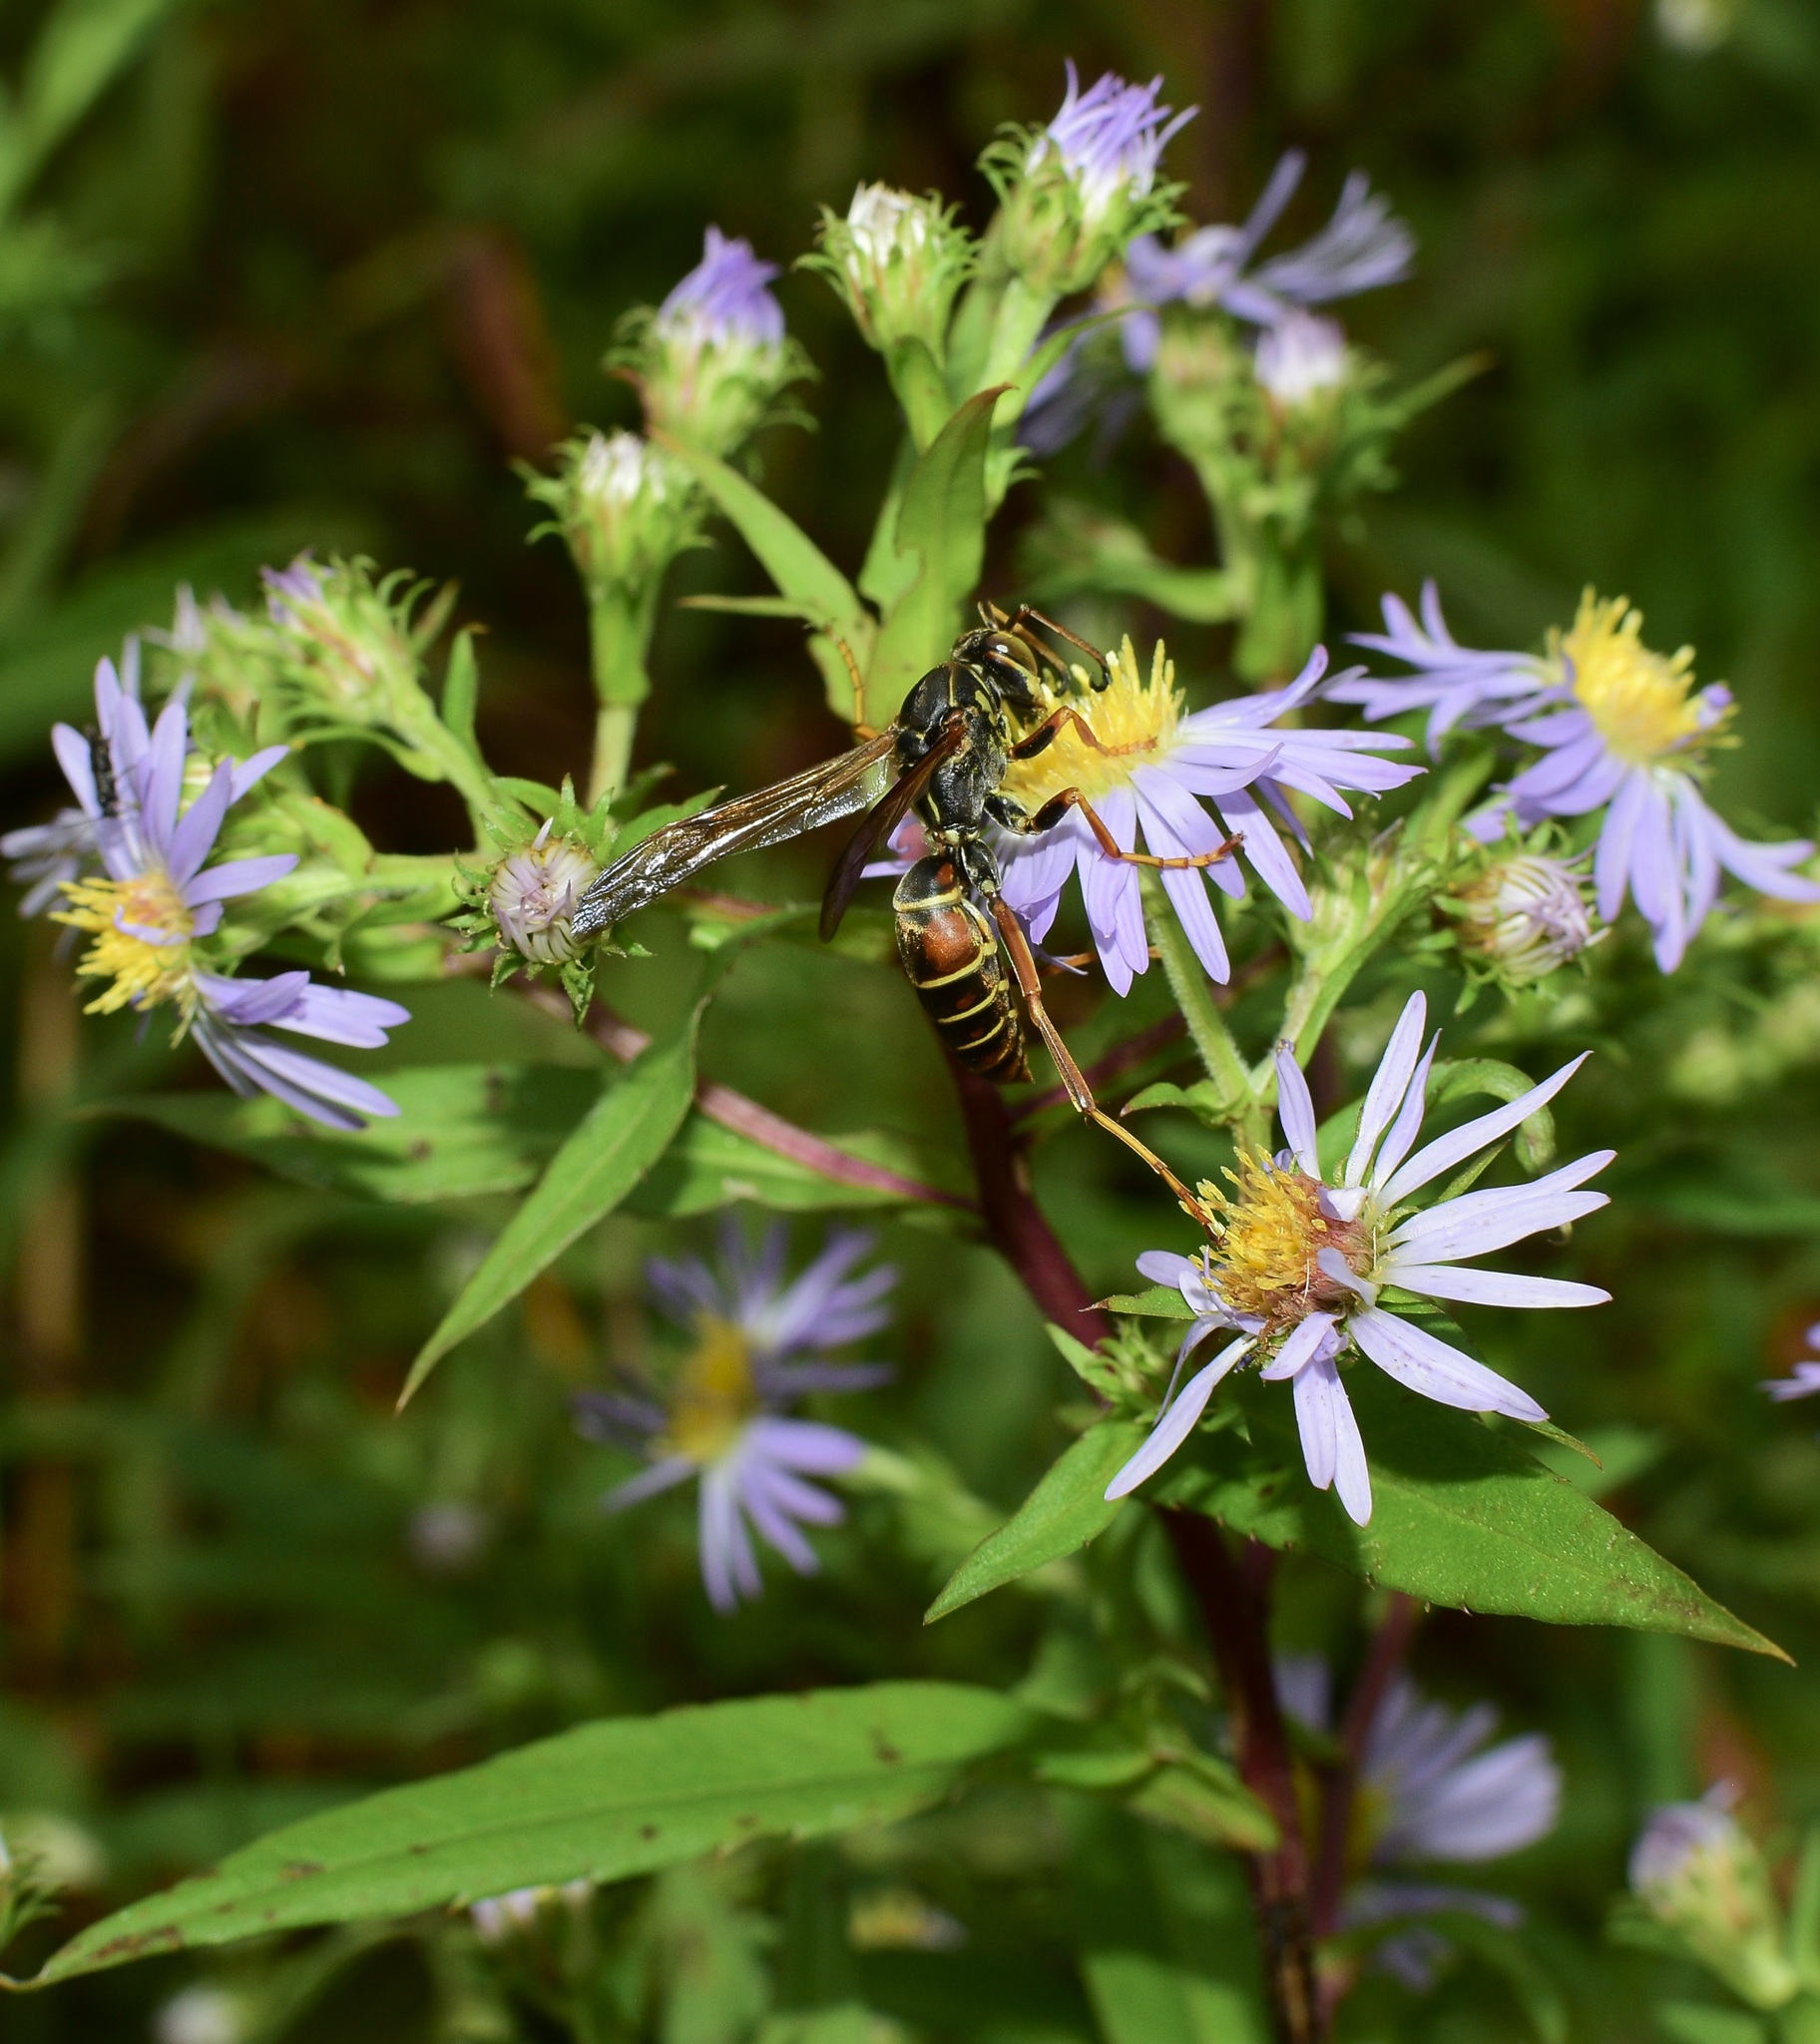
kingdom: Animalia
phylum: Arthropoda
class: Insecta
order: Hymenoptera
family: Eumenidae
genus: Polistes
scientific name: Polistes fuscatus
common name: Dark paper wasp
